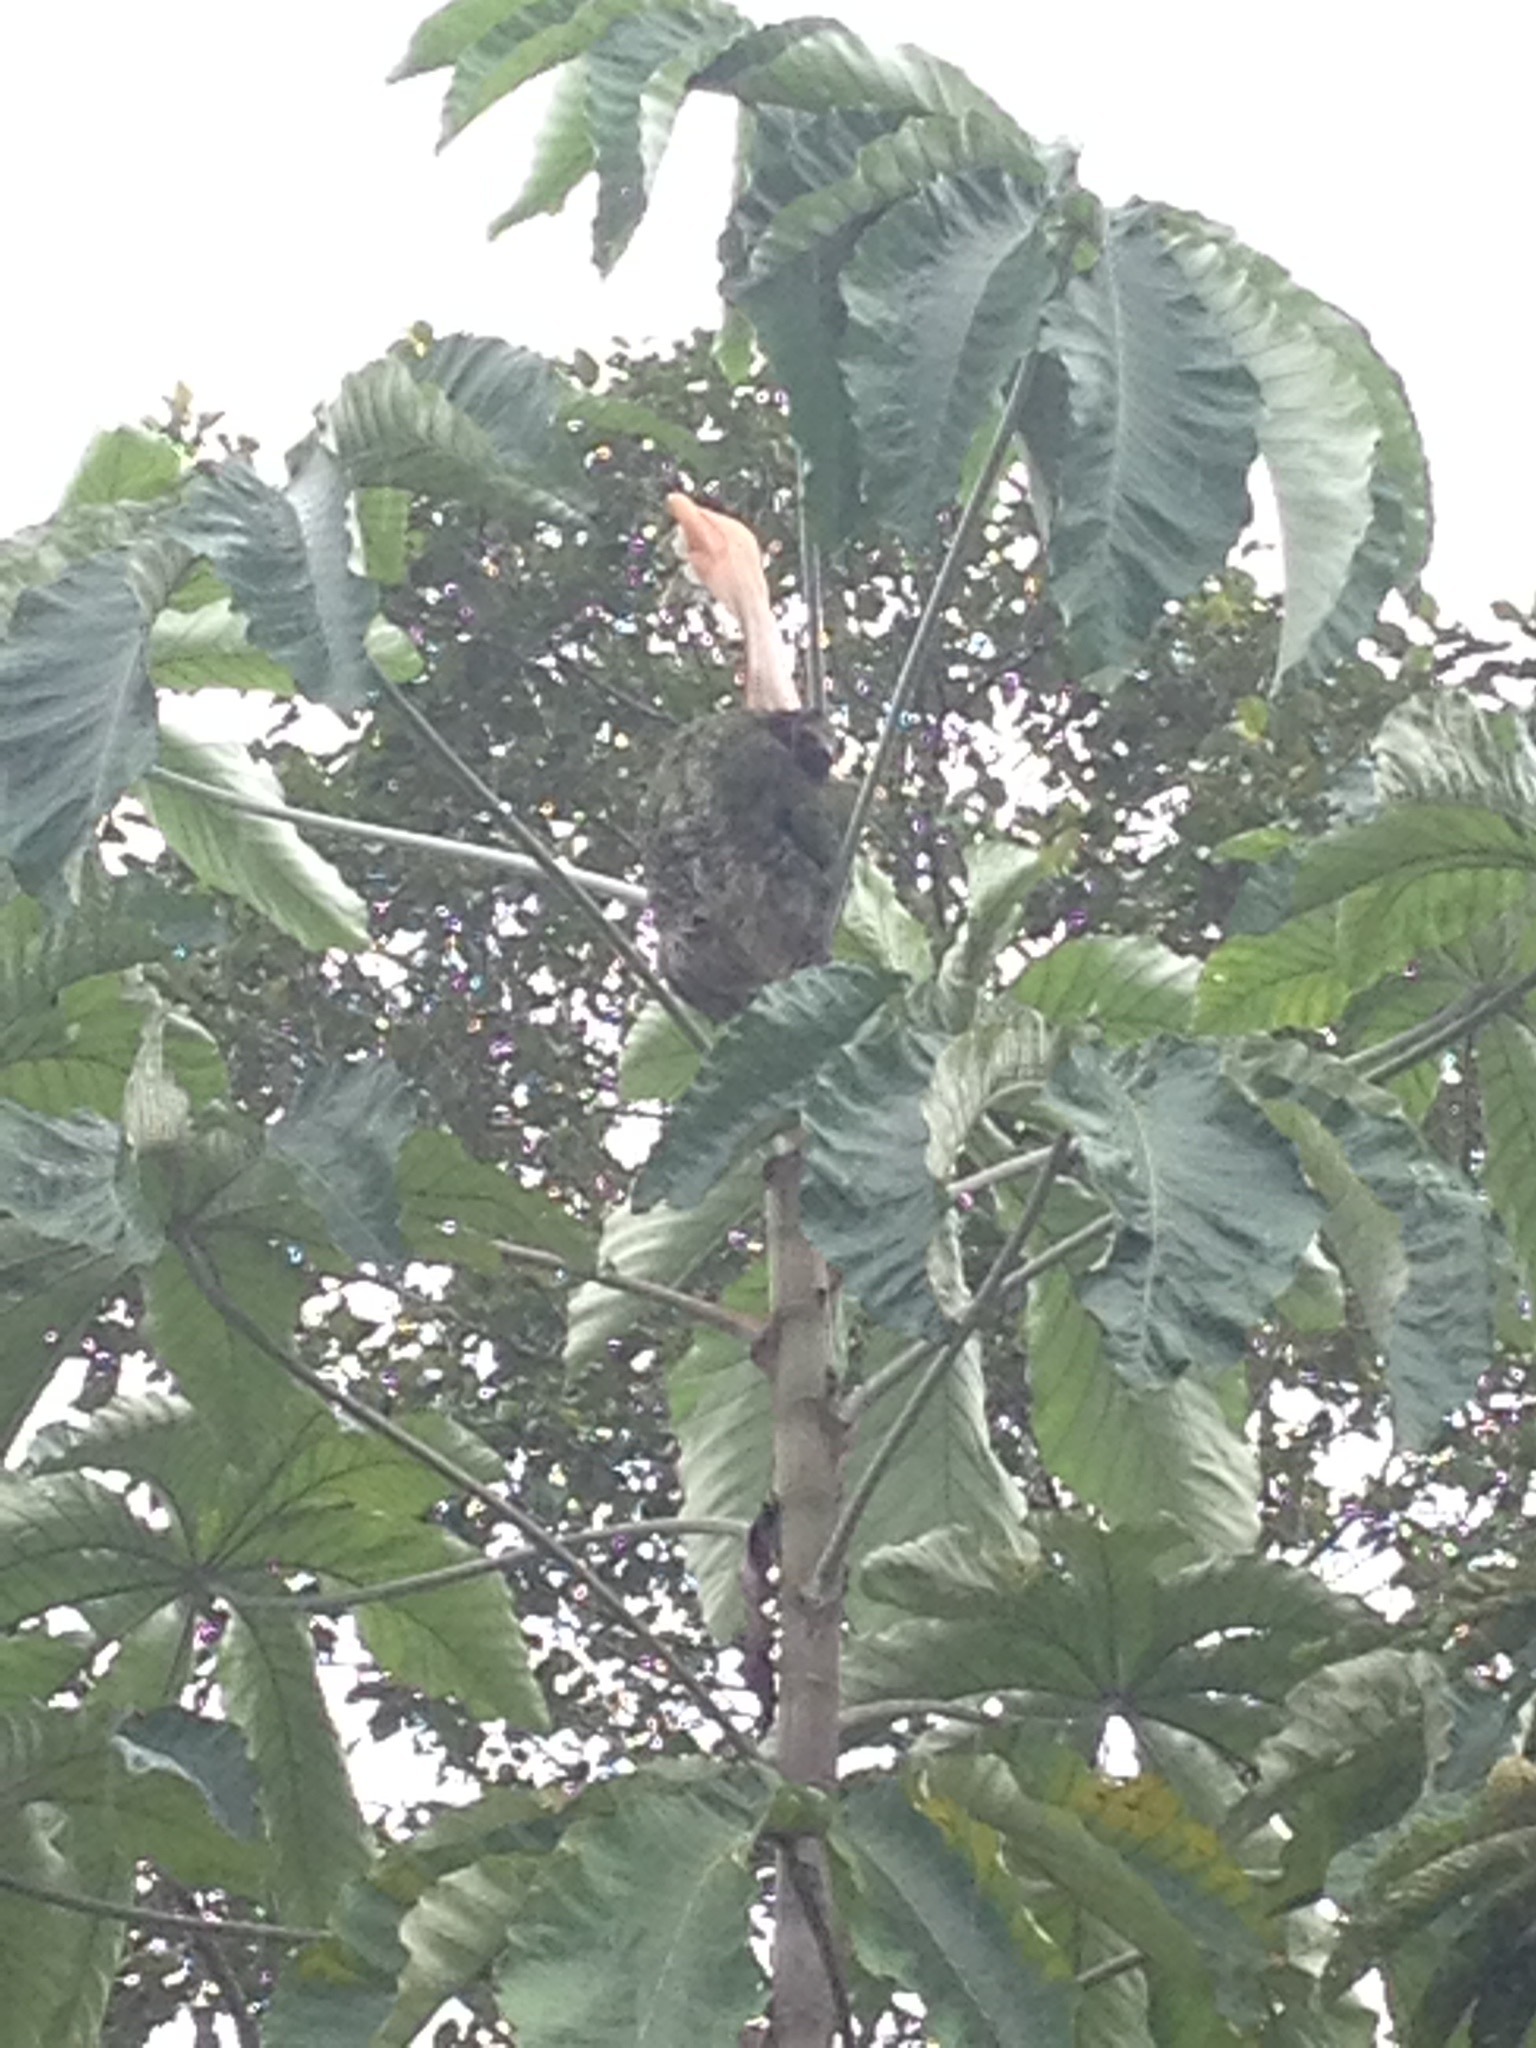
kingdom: Animalia
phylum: Chordata
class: Mammalia
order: Pilosa
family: Bradypodidae
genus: Bradypus
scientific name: Bradypus variegatus
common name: Brown-throated three-toed sloth
